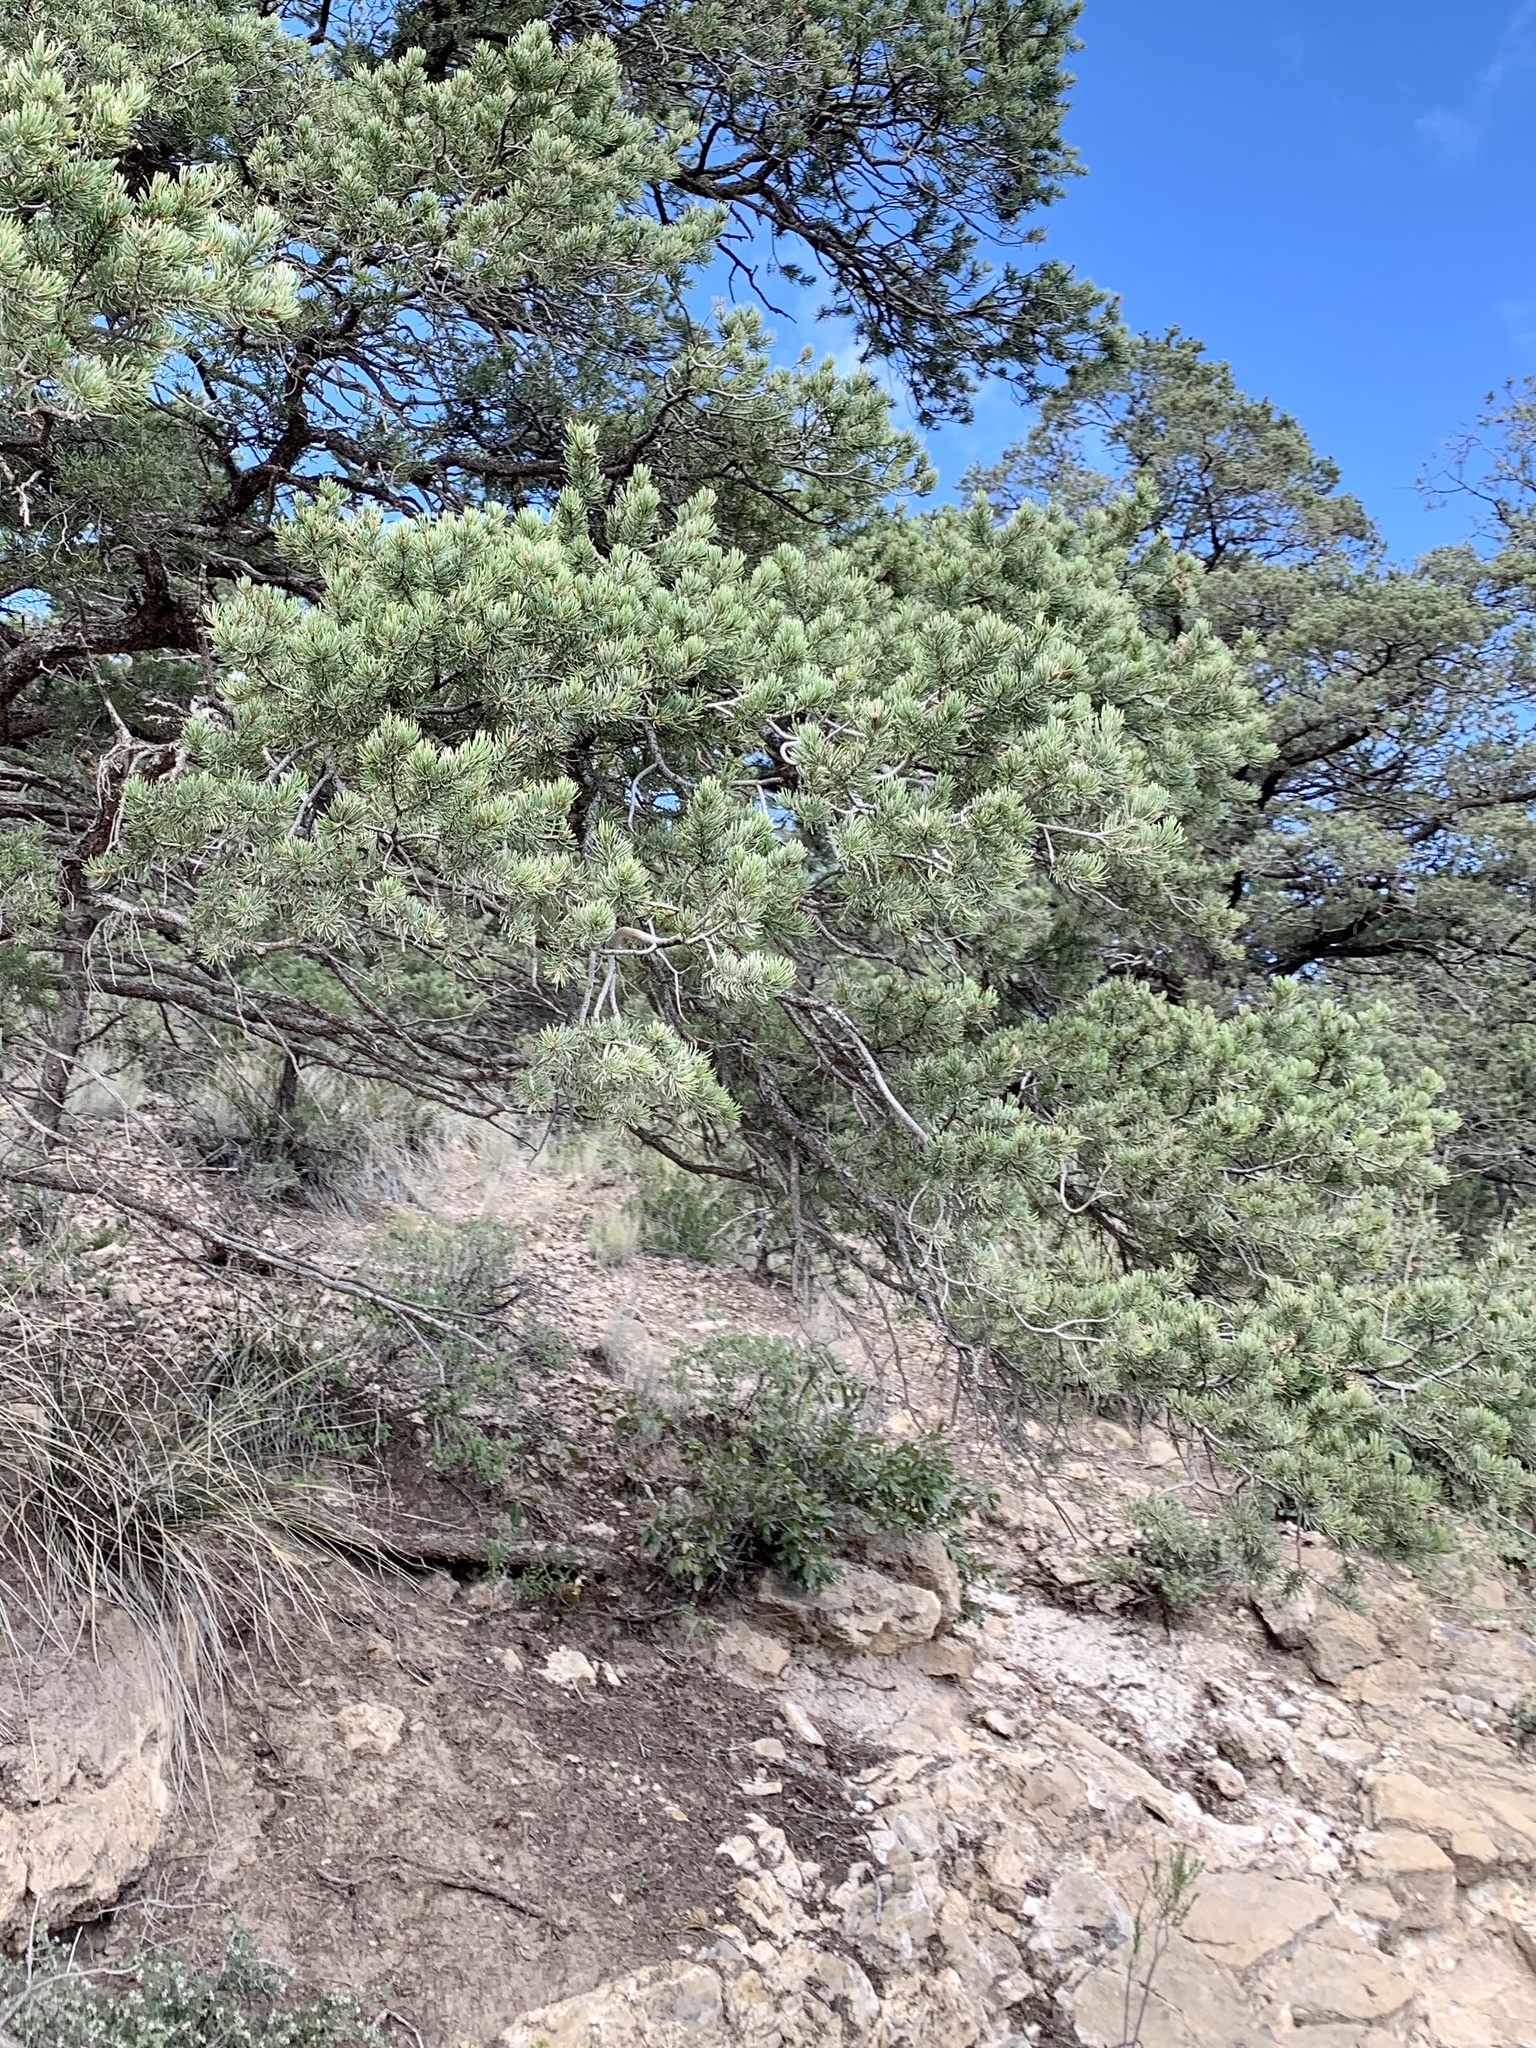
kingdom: Plantae
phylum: Tracheophyta
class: Pinopsida
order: Pinales
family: Pinaceae
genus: Pinus
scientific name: Pinus edulis
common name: Colorado pinyon
